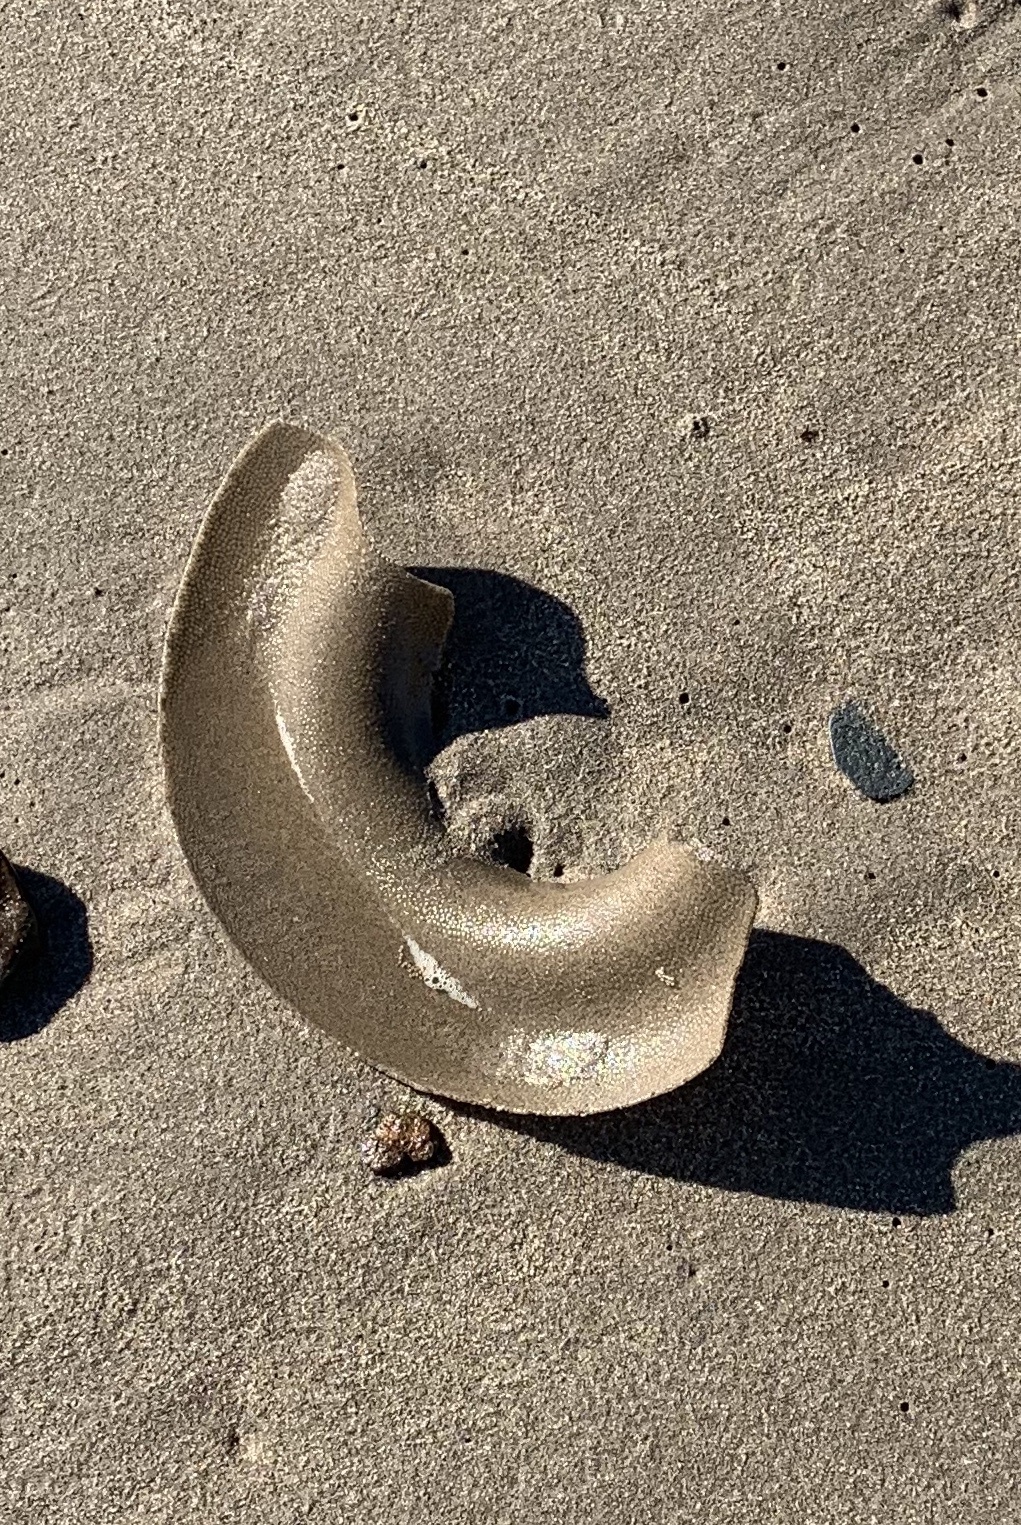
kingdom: Animalia
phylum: Mollusca
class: Gastropoda
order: Littorinimorpha
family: Naticidae
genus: Euspira
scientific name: Euspira heros
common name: Common northern moonsnail
